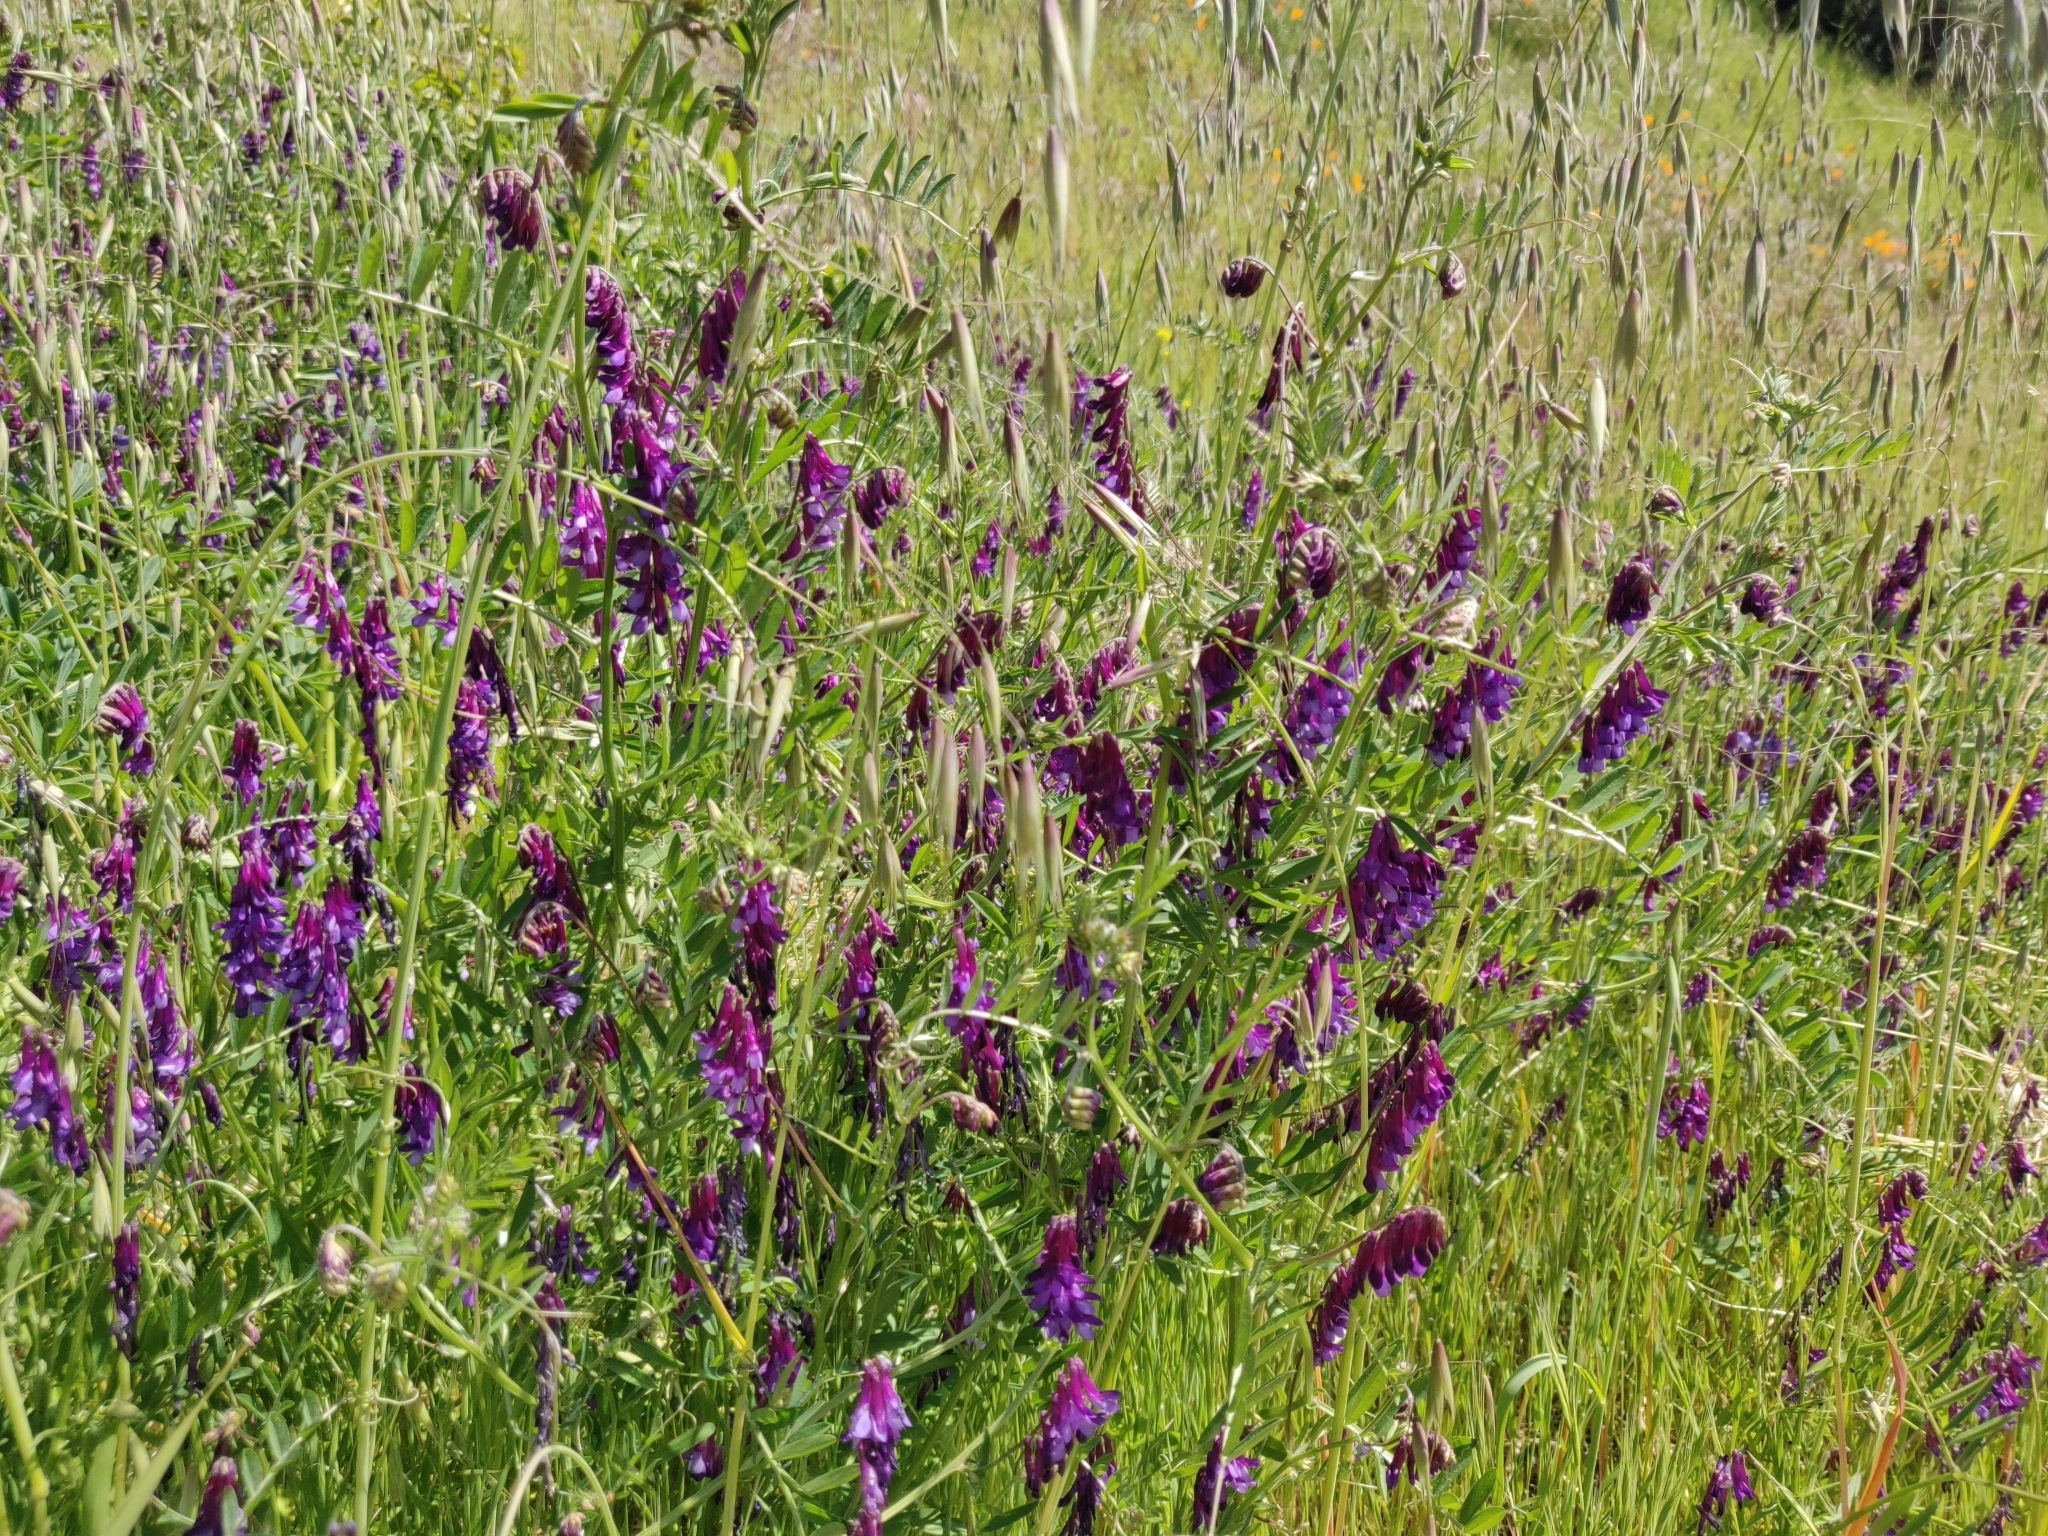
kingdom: Plantae
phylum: Tracheophyta
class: Magnoliopsida
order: Fabales
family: Fabaceae
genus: Vicia
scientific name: Vicia villosa
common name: Fodder vetch
